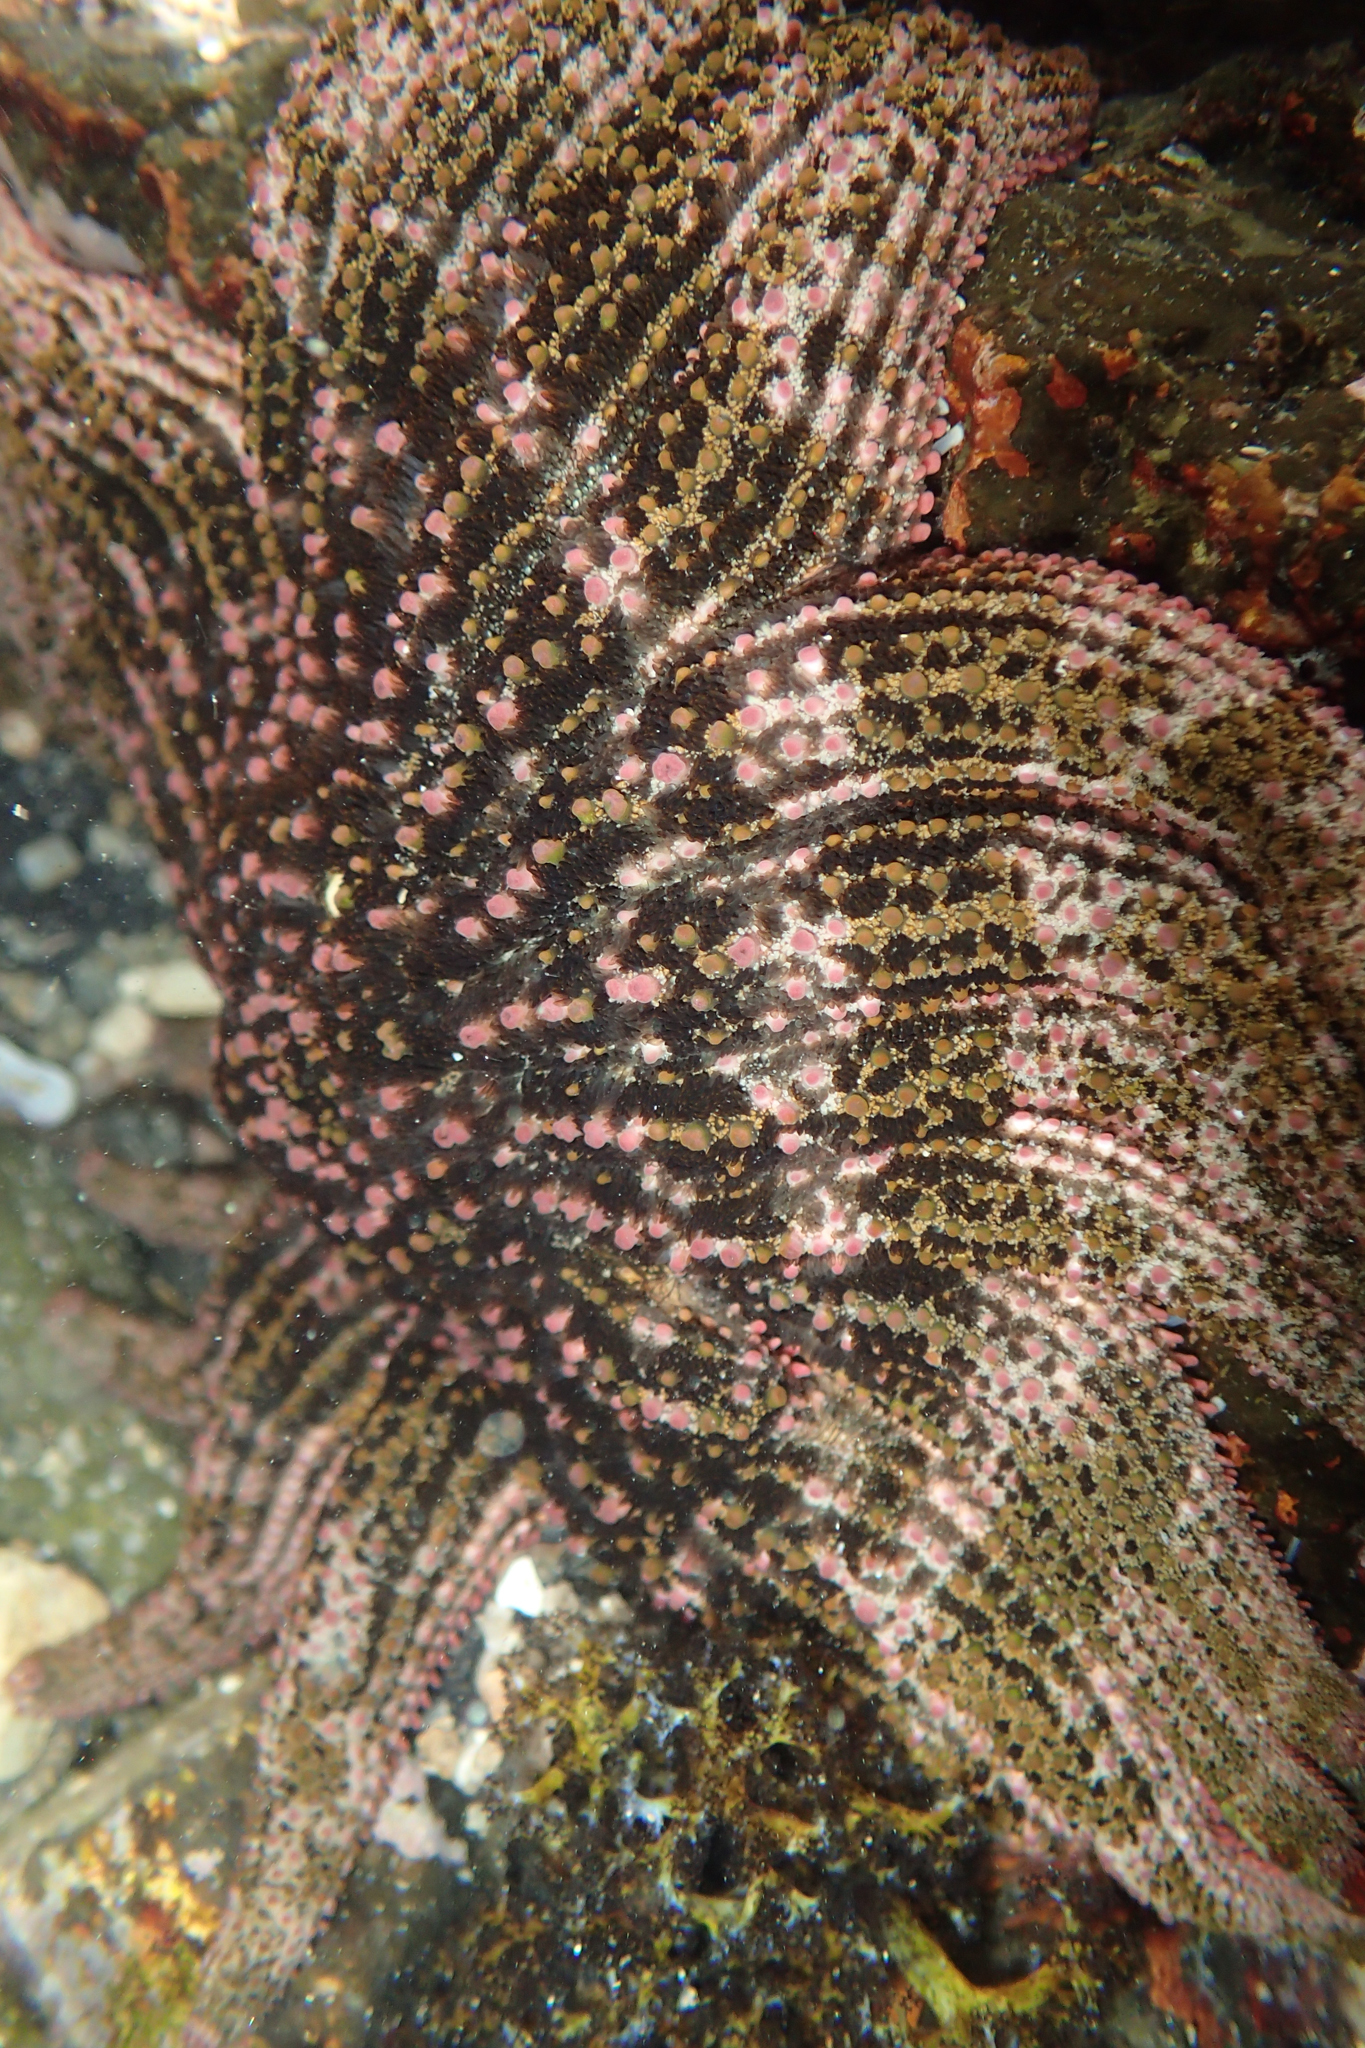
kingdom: Animalia
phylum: Echinodermata
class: Asteroidea
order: Forcipulatida
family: Heliasteridae
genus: Heliaster
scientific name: Heliaster kubiniji
